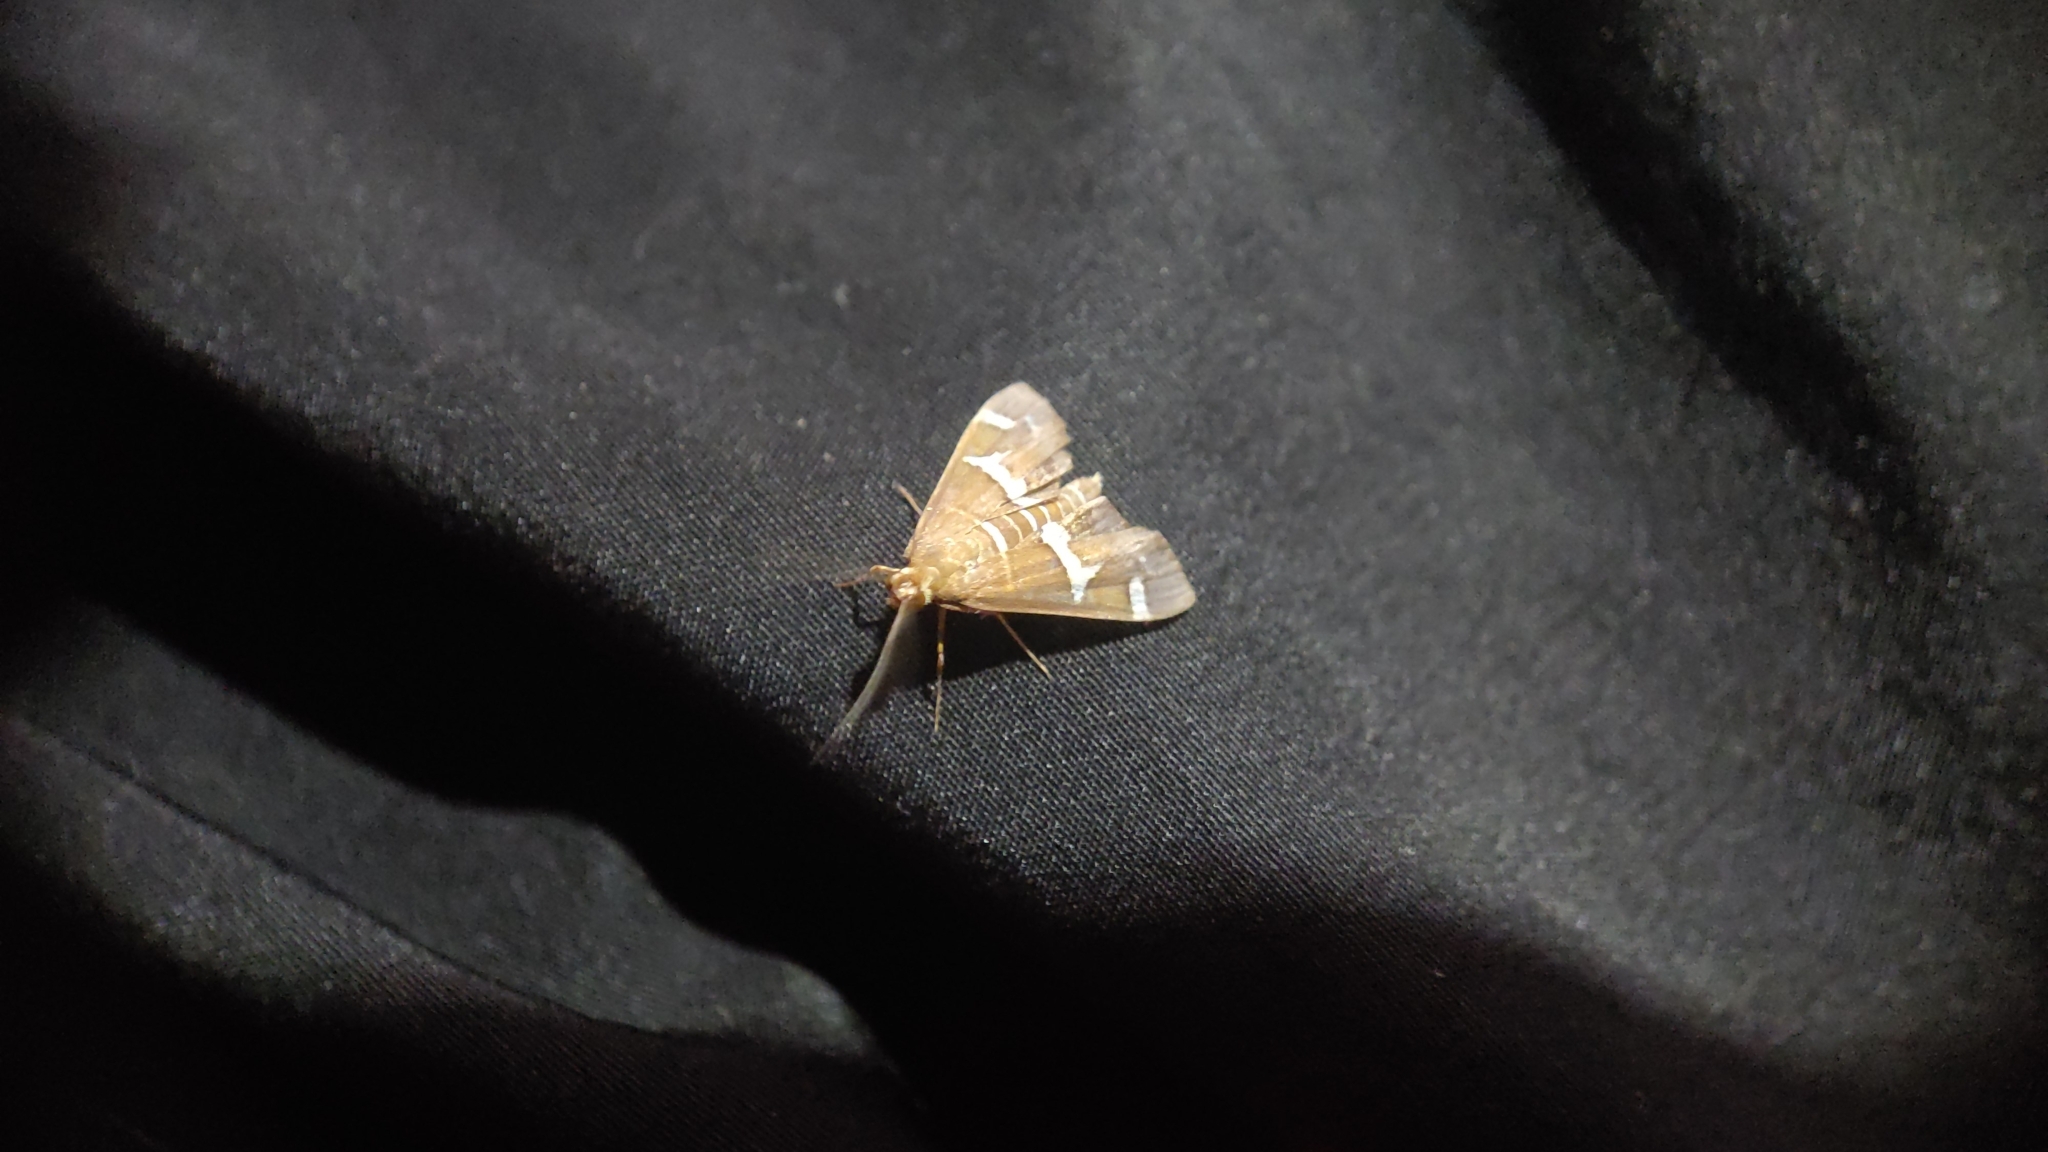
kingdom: Animalia
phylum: Arthropoda
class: Insecta
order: Lepidoptera
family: Crambidae
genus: Spoladea
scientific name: Spoladea recurvalis
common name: Beet webworm moth
